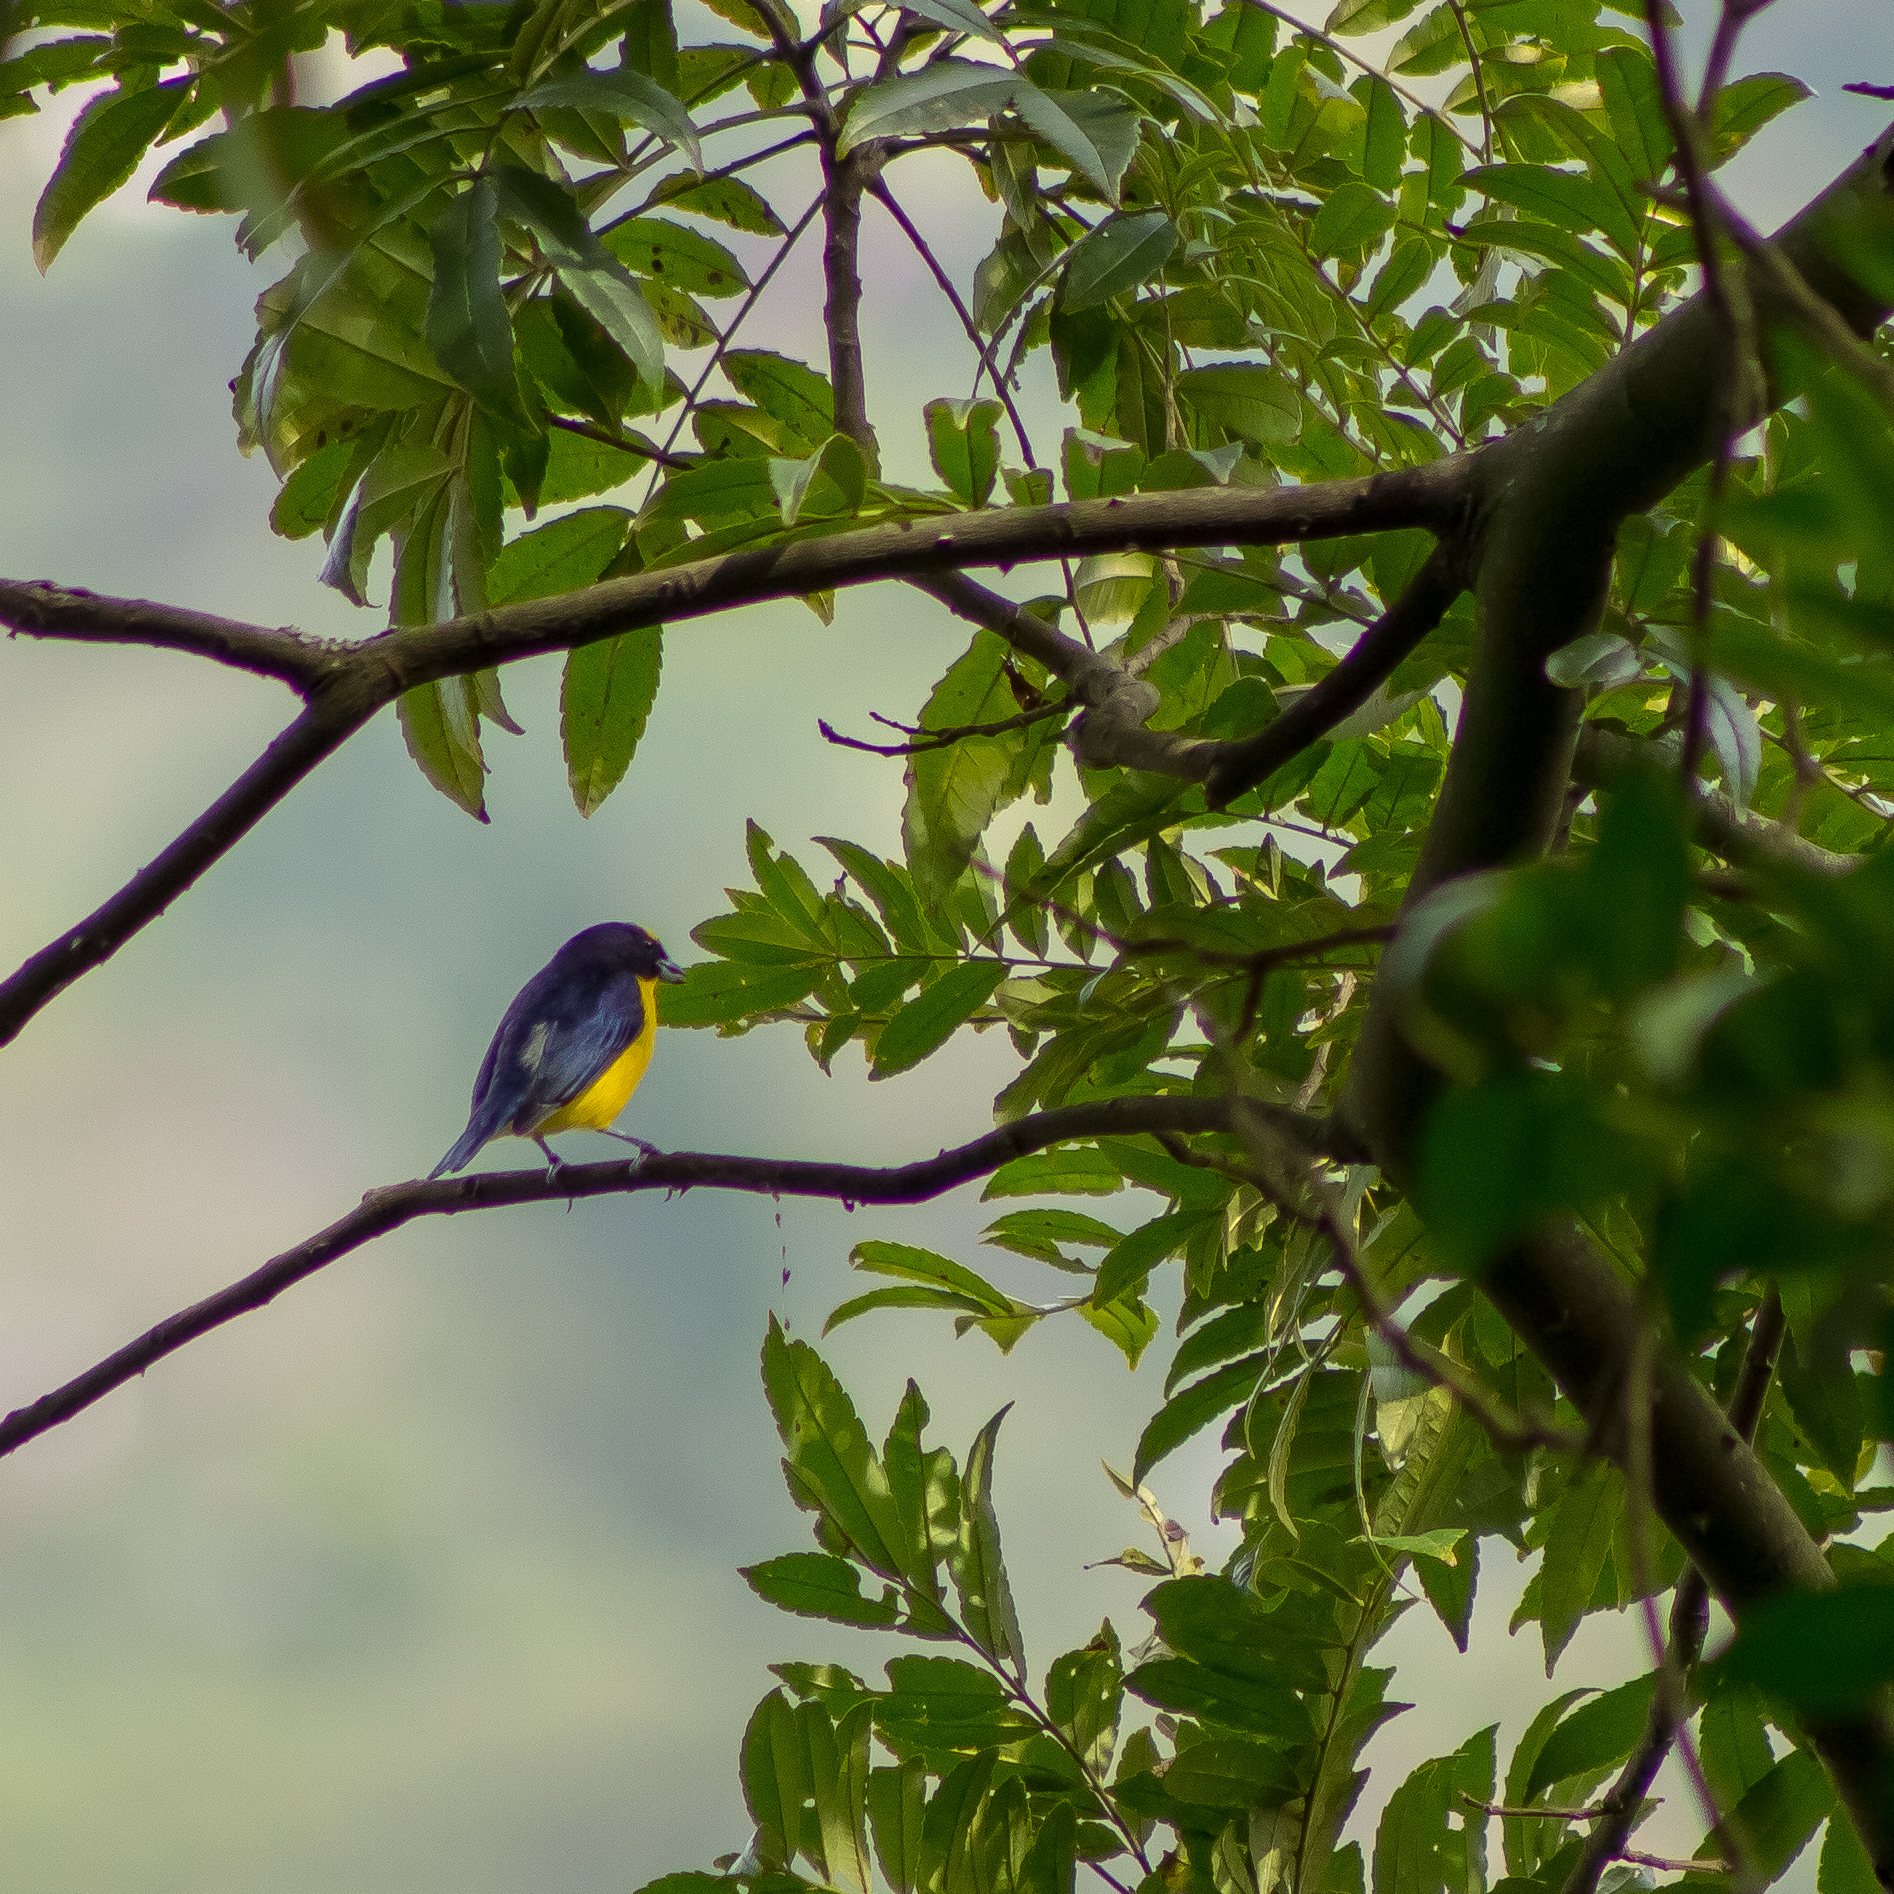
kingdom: Animalia
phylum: Chordata
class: Aves
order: Passeriformes
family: Fringillidae
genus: Euphonia
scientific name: Euphonia laniirostris
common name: Thick-billed euphonia
